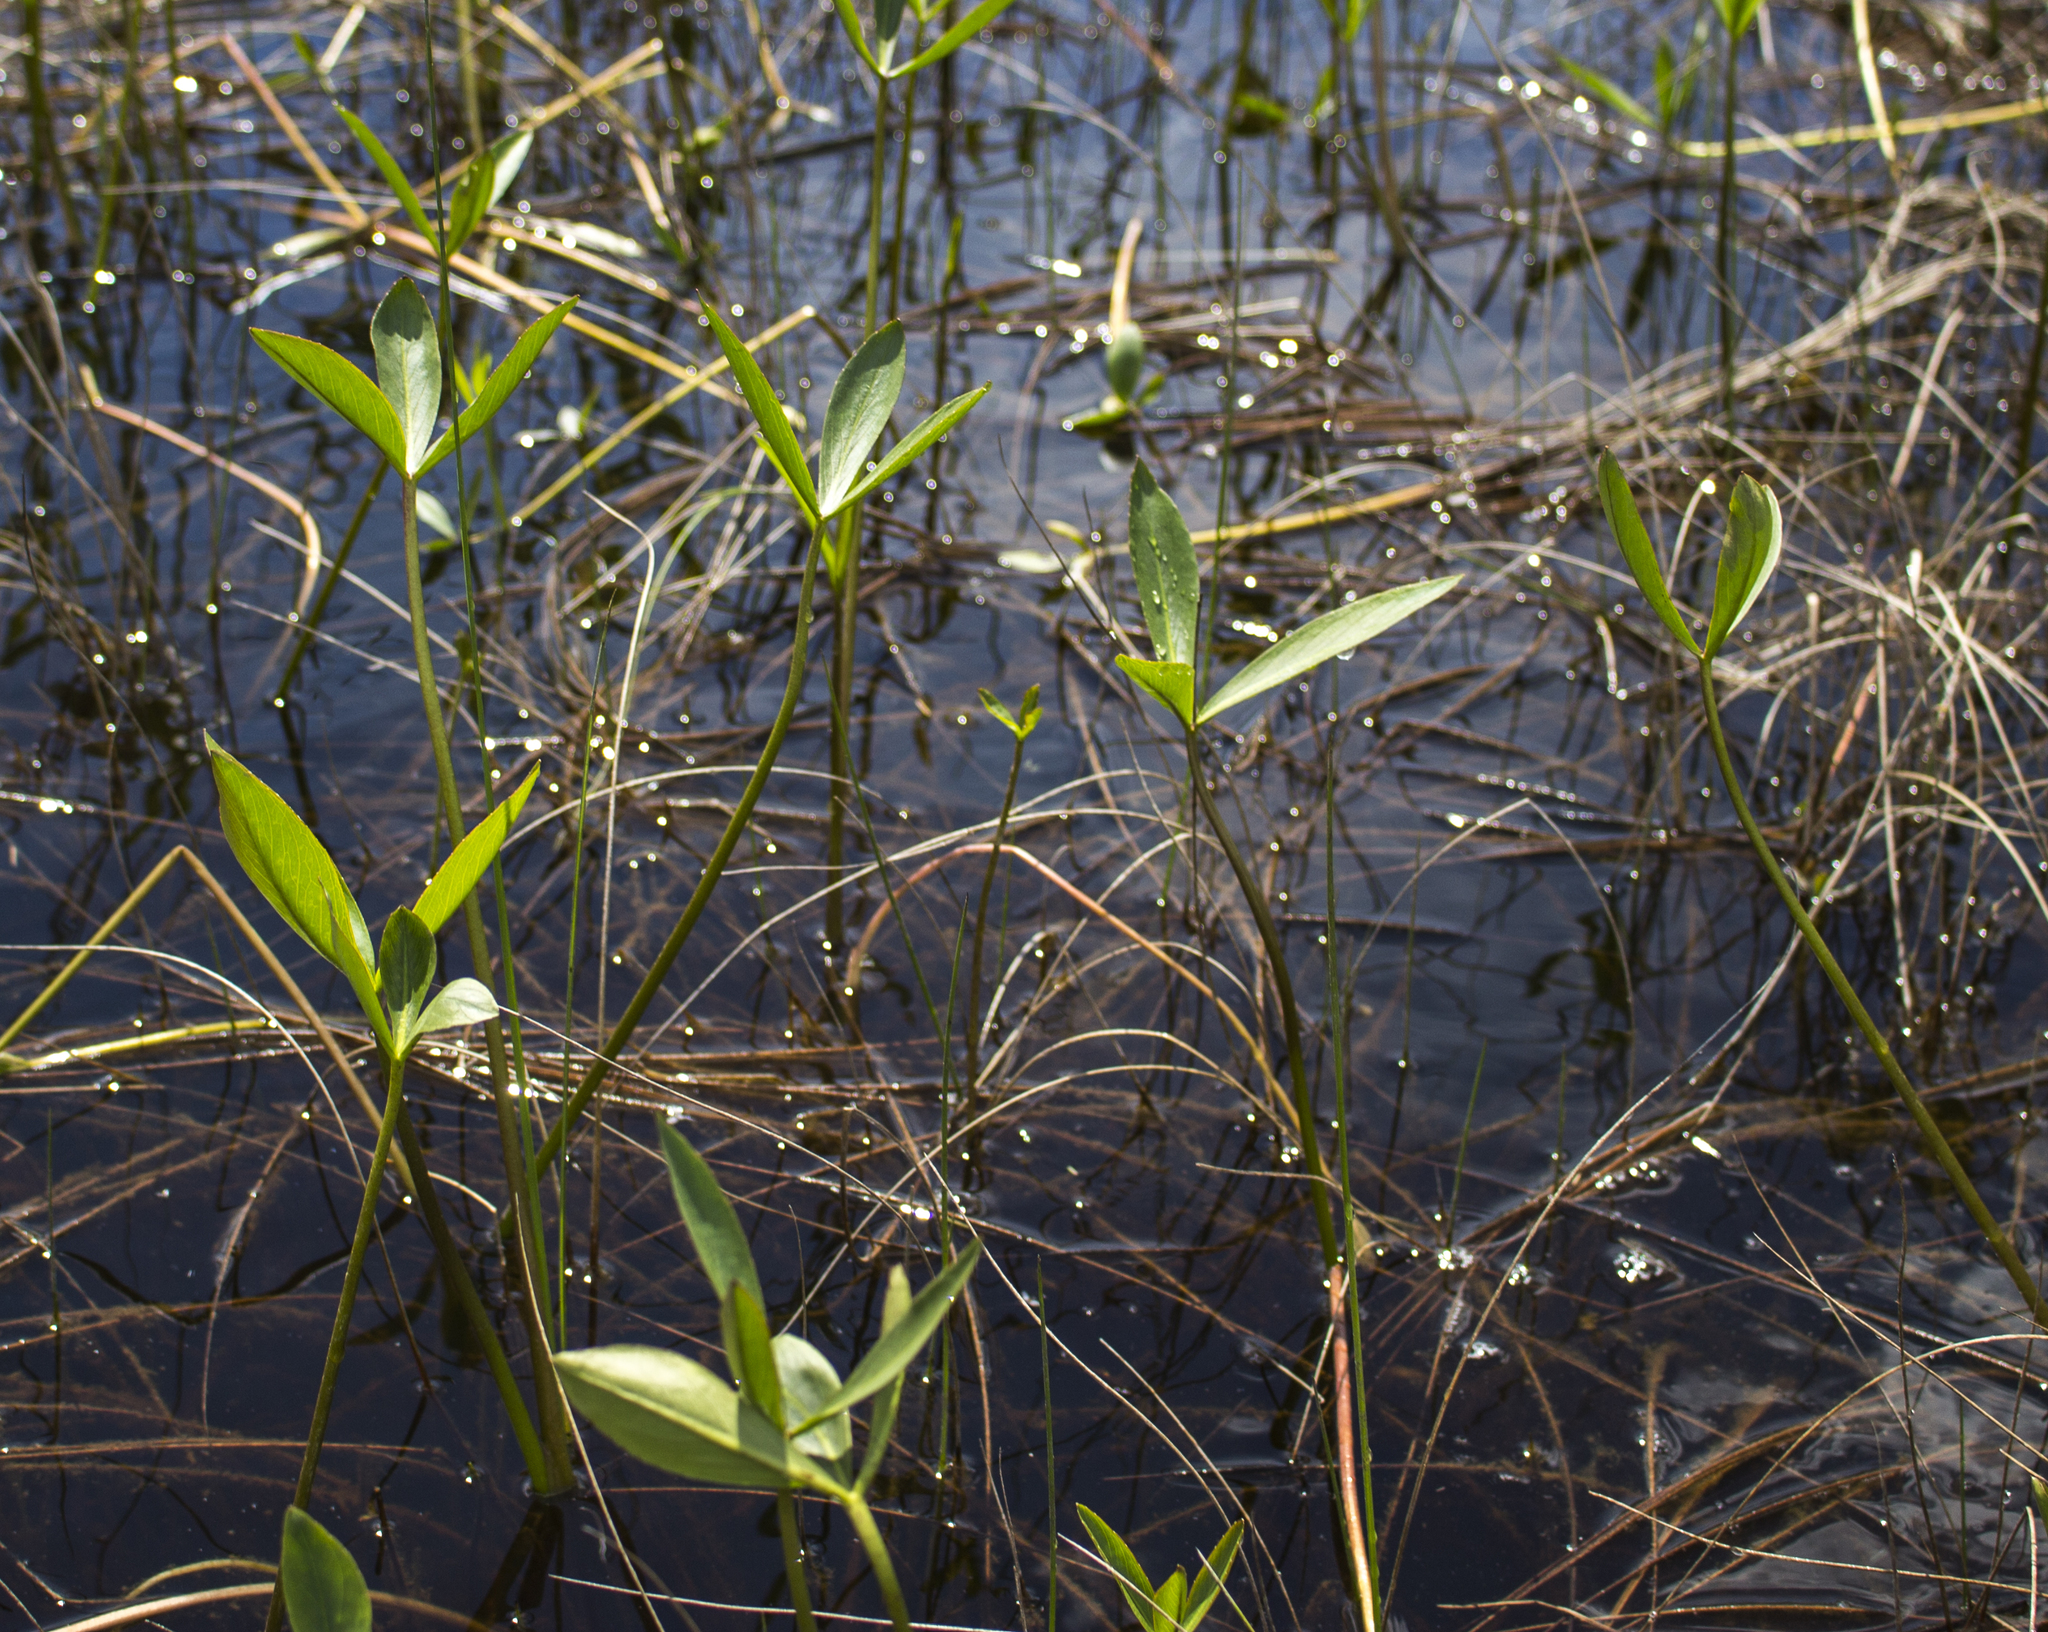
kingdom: Plantae
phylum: Tracheophyta
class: Magnoliopsida
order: Asterales
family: Menyanthaceae
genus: Menyanthes
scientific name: Menyanthes trifoliata
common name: Bogbean
